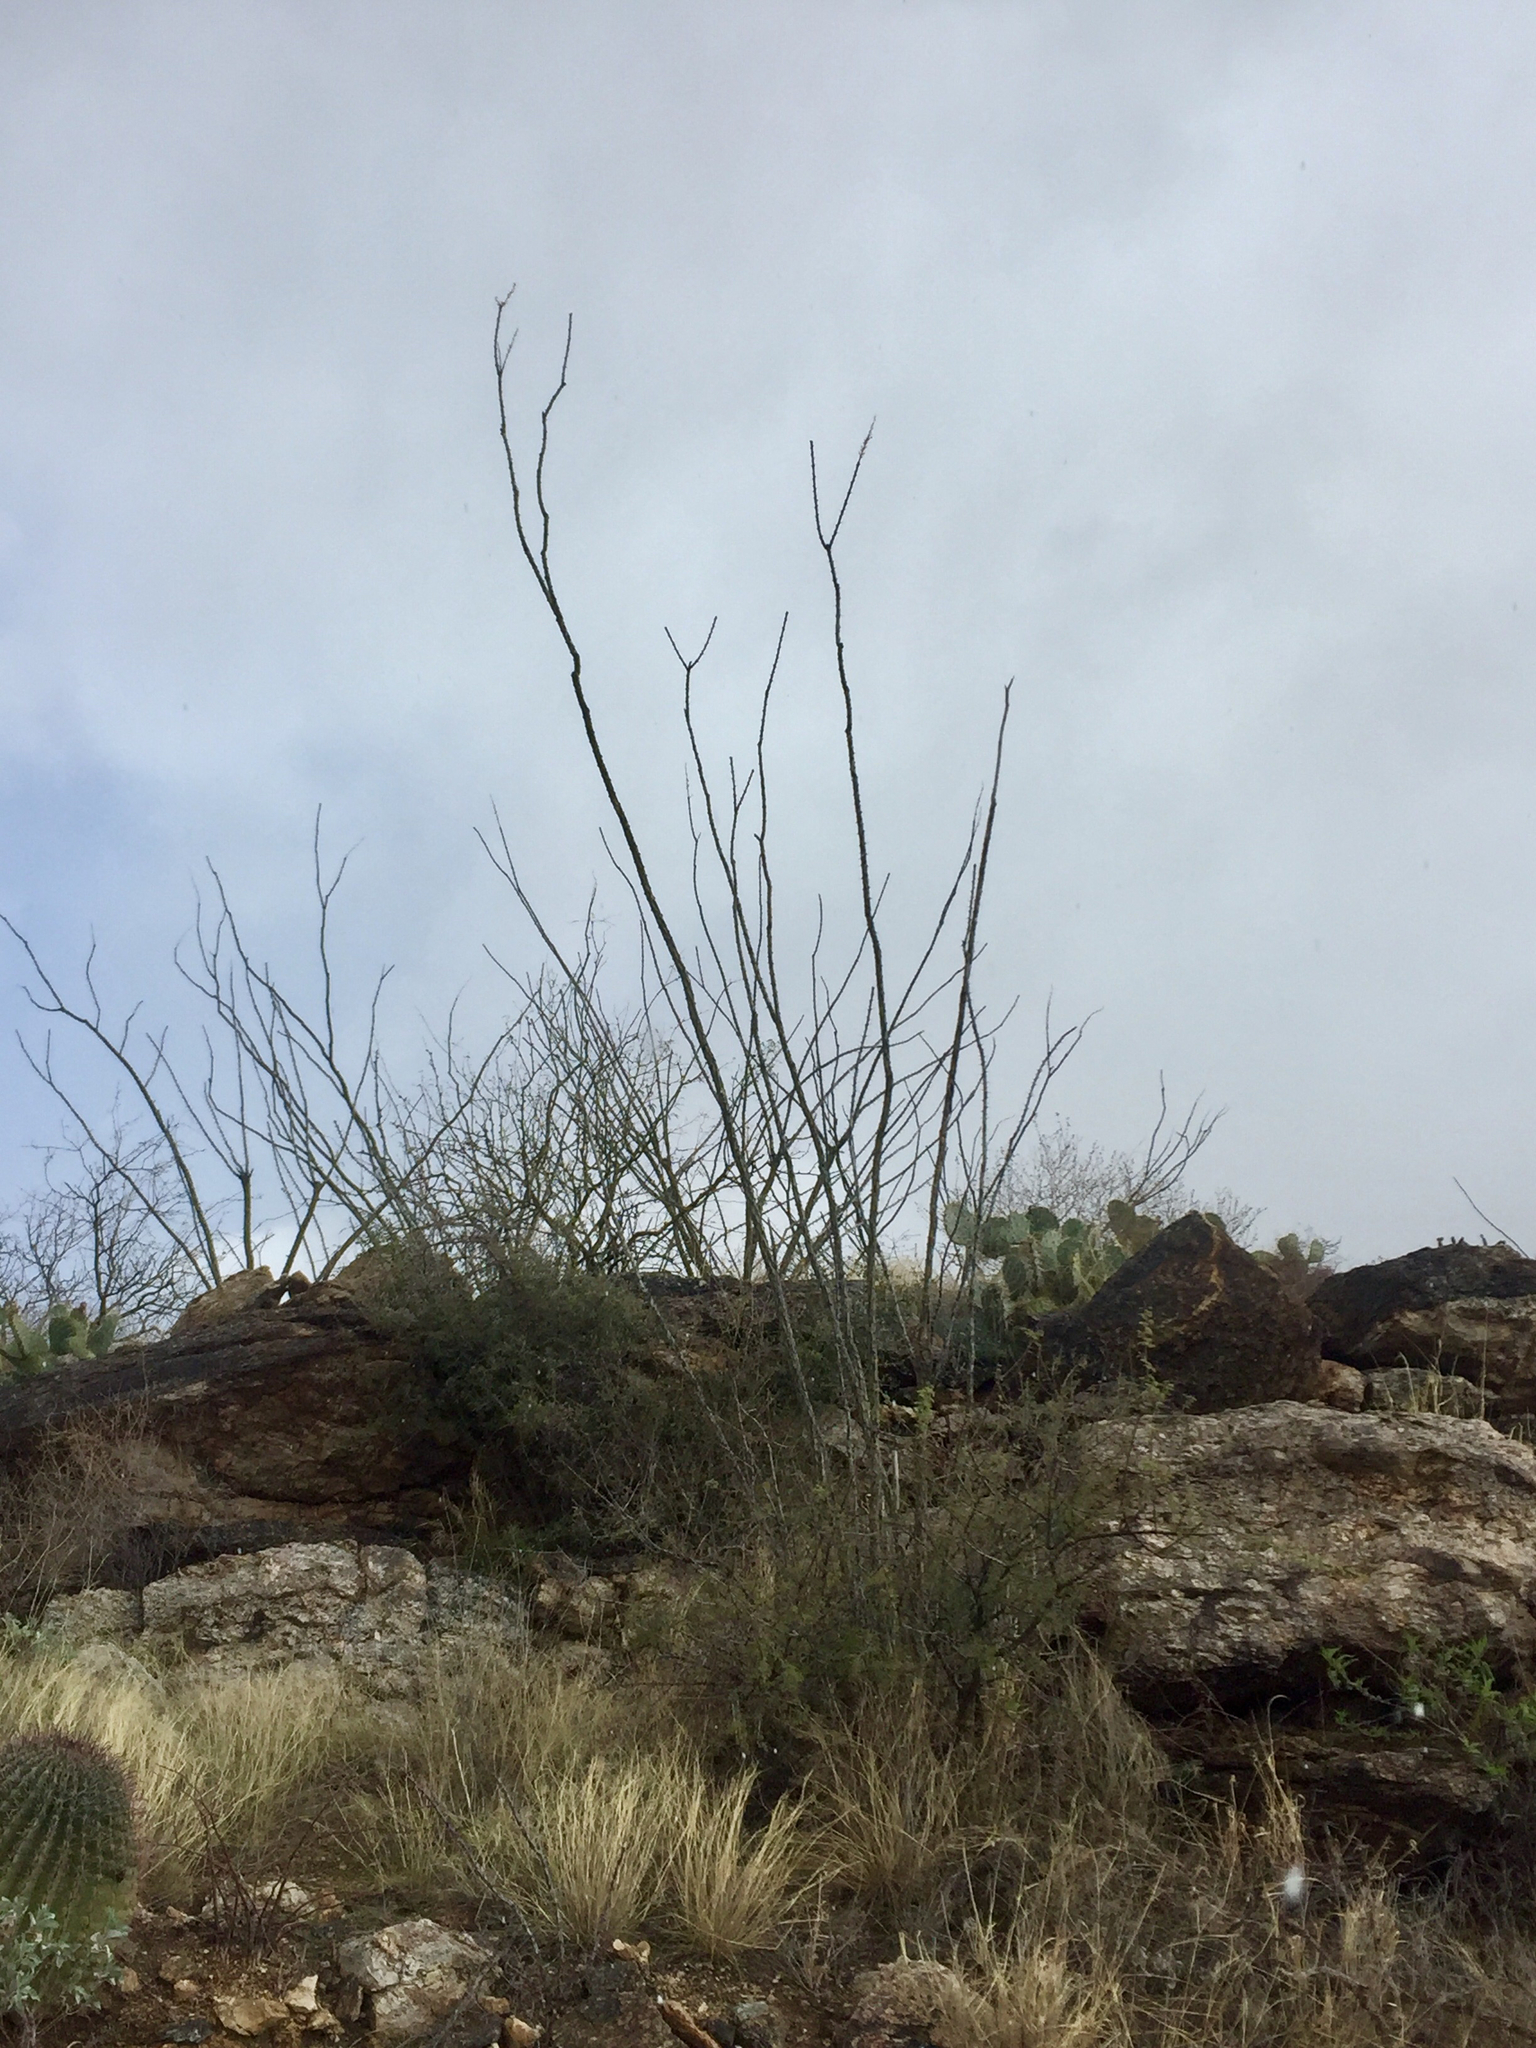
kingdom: Plantae
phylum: Tracheophyta
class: Magnoliopsida
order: Ericales
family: Fouquieriaceae
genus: Fouquieria
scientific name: Fouquieria splendens
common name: Vine-cactus
